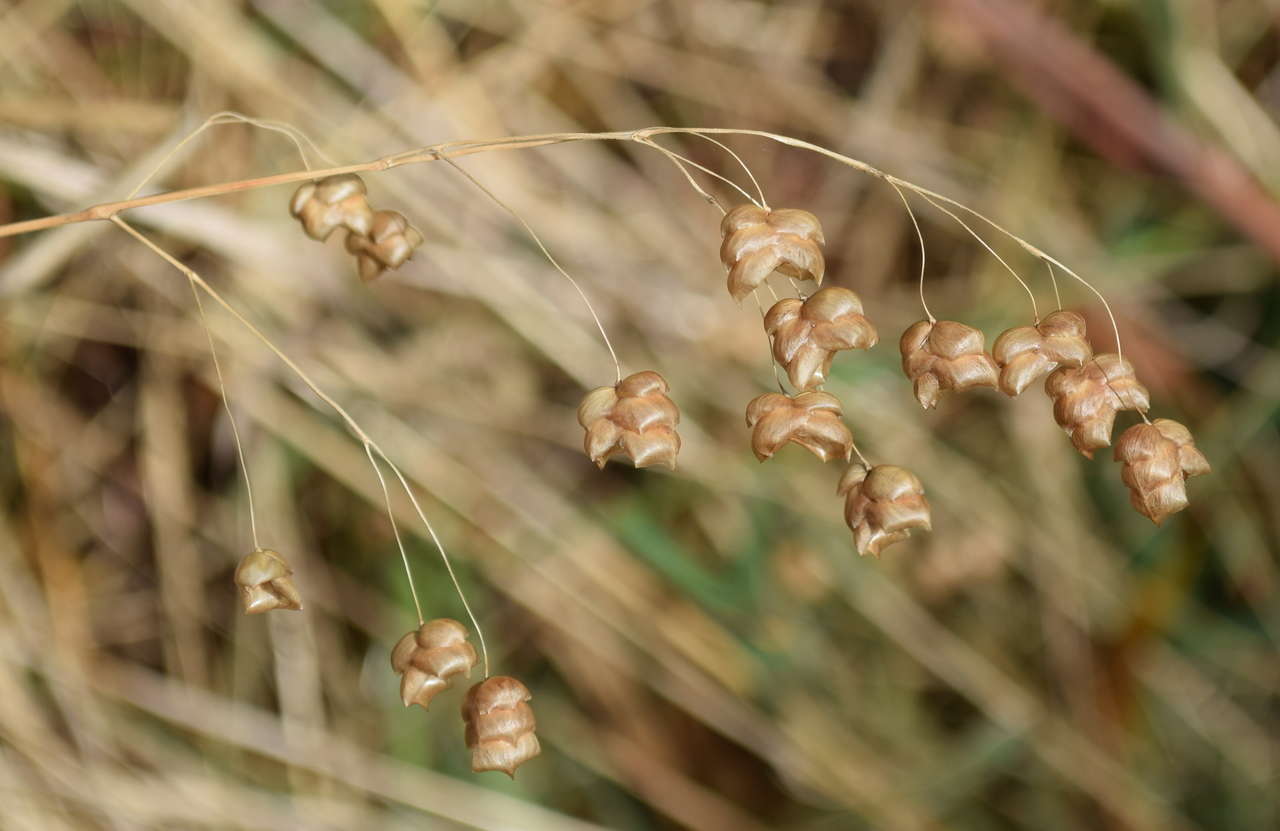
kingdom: Plantae
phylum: Tracheophyta
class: Liliopsida
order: Poales
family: Poaceae
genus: Briza
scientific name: Briza maxima
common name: Big quakinggrass
